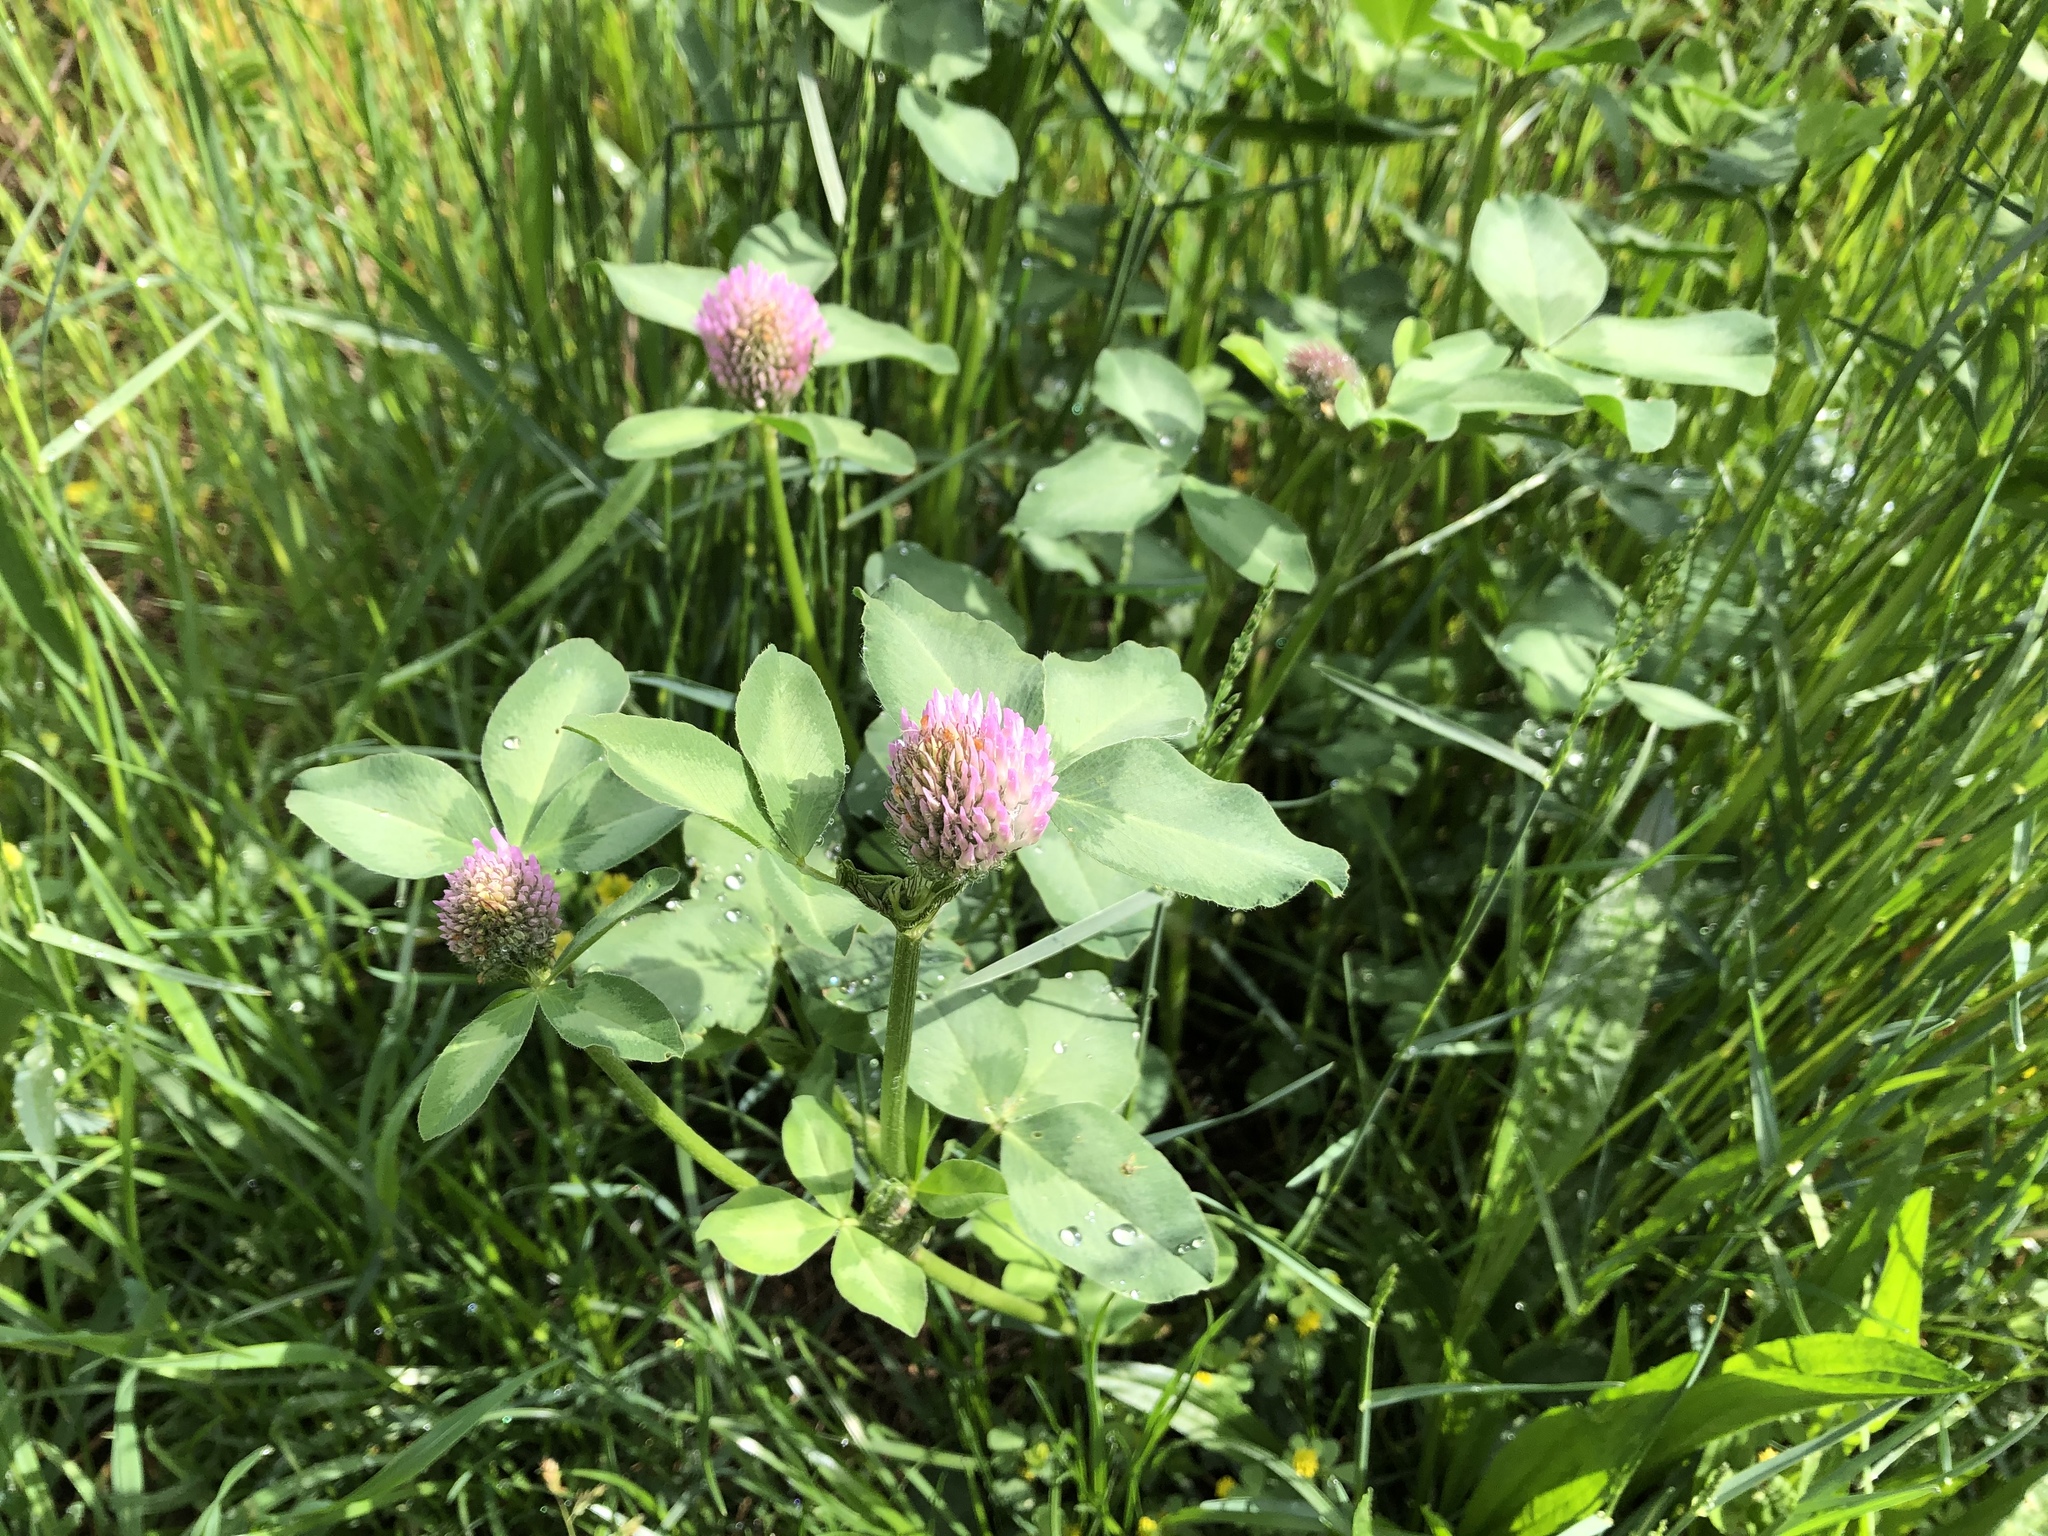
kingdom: Plantae
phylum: Tracheophyta
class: Magnoliopsida
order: Fabales
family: Fabaceae
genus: Trifolium
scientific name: Trifolium pratense
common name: Red clover
